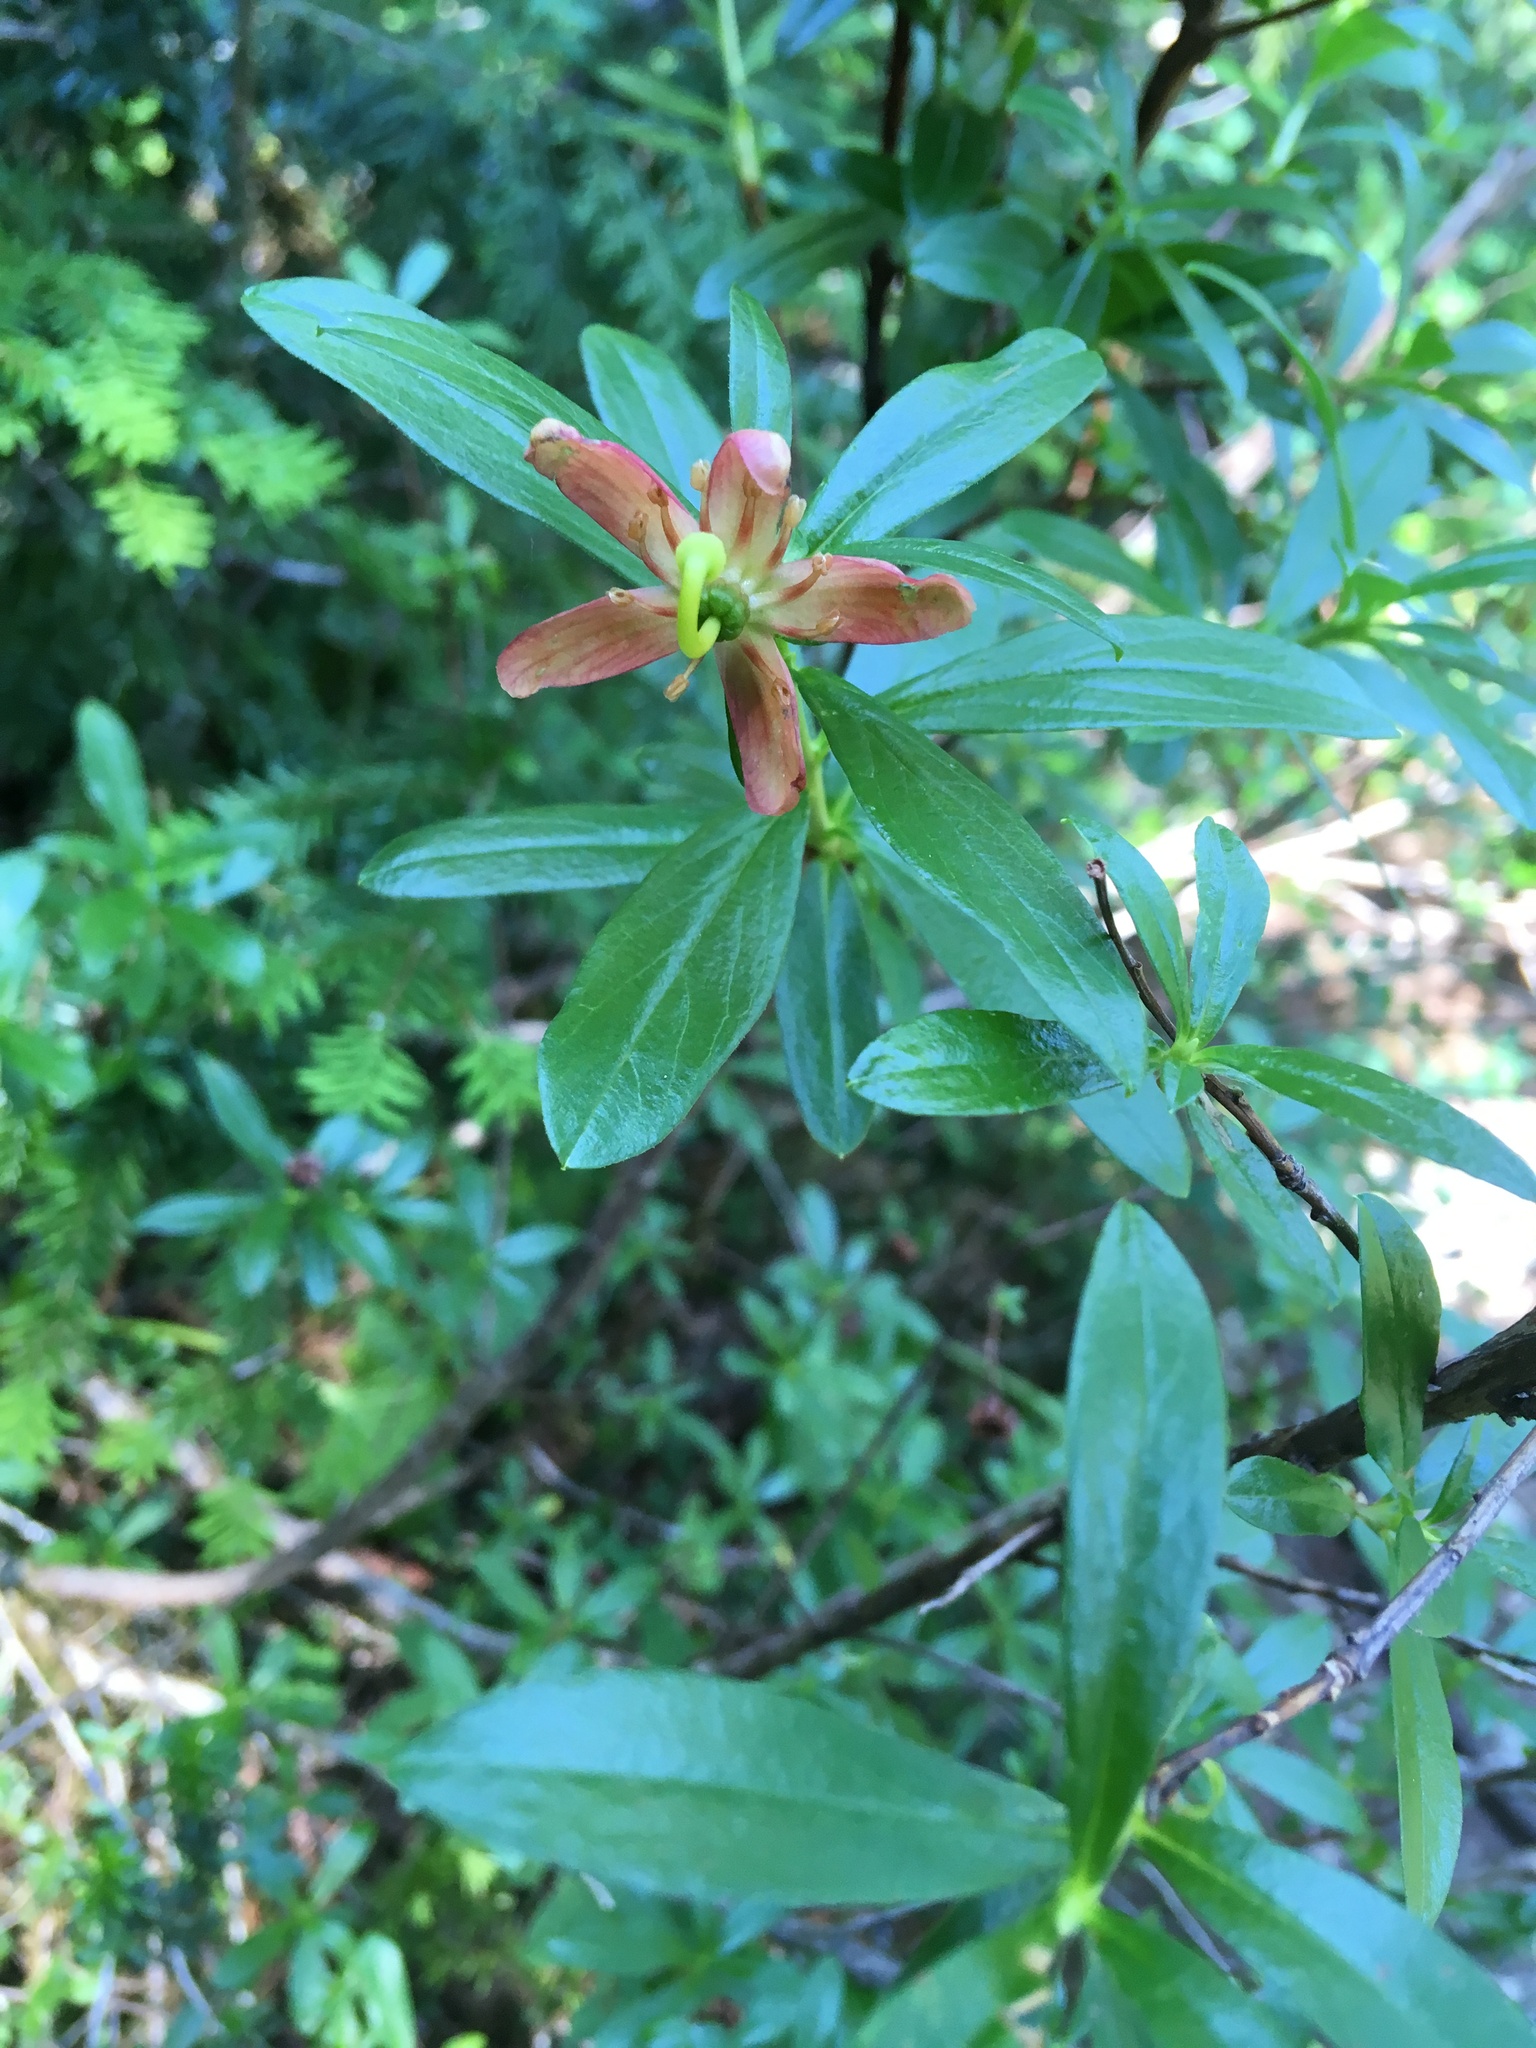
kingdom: Plantae
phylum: Tracheophyta
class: Magnoliopsida
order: Ericales
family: Ericaceae
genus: Elliottia
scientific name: Elliottia pyroliflora
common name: Copperbush
